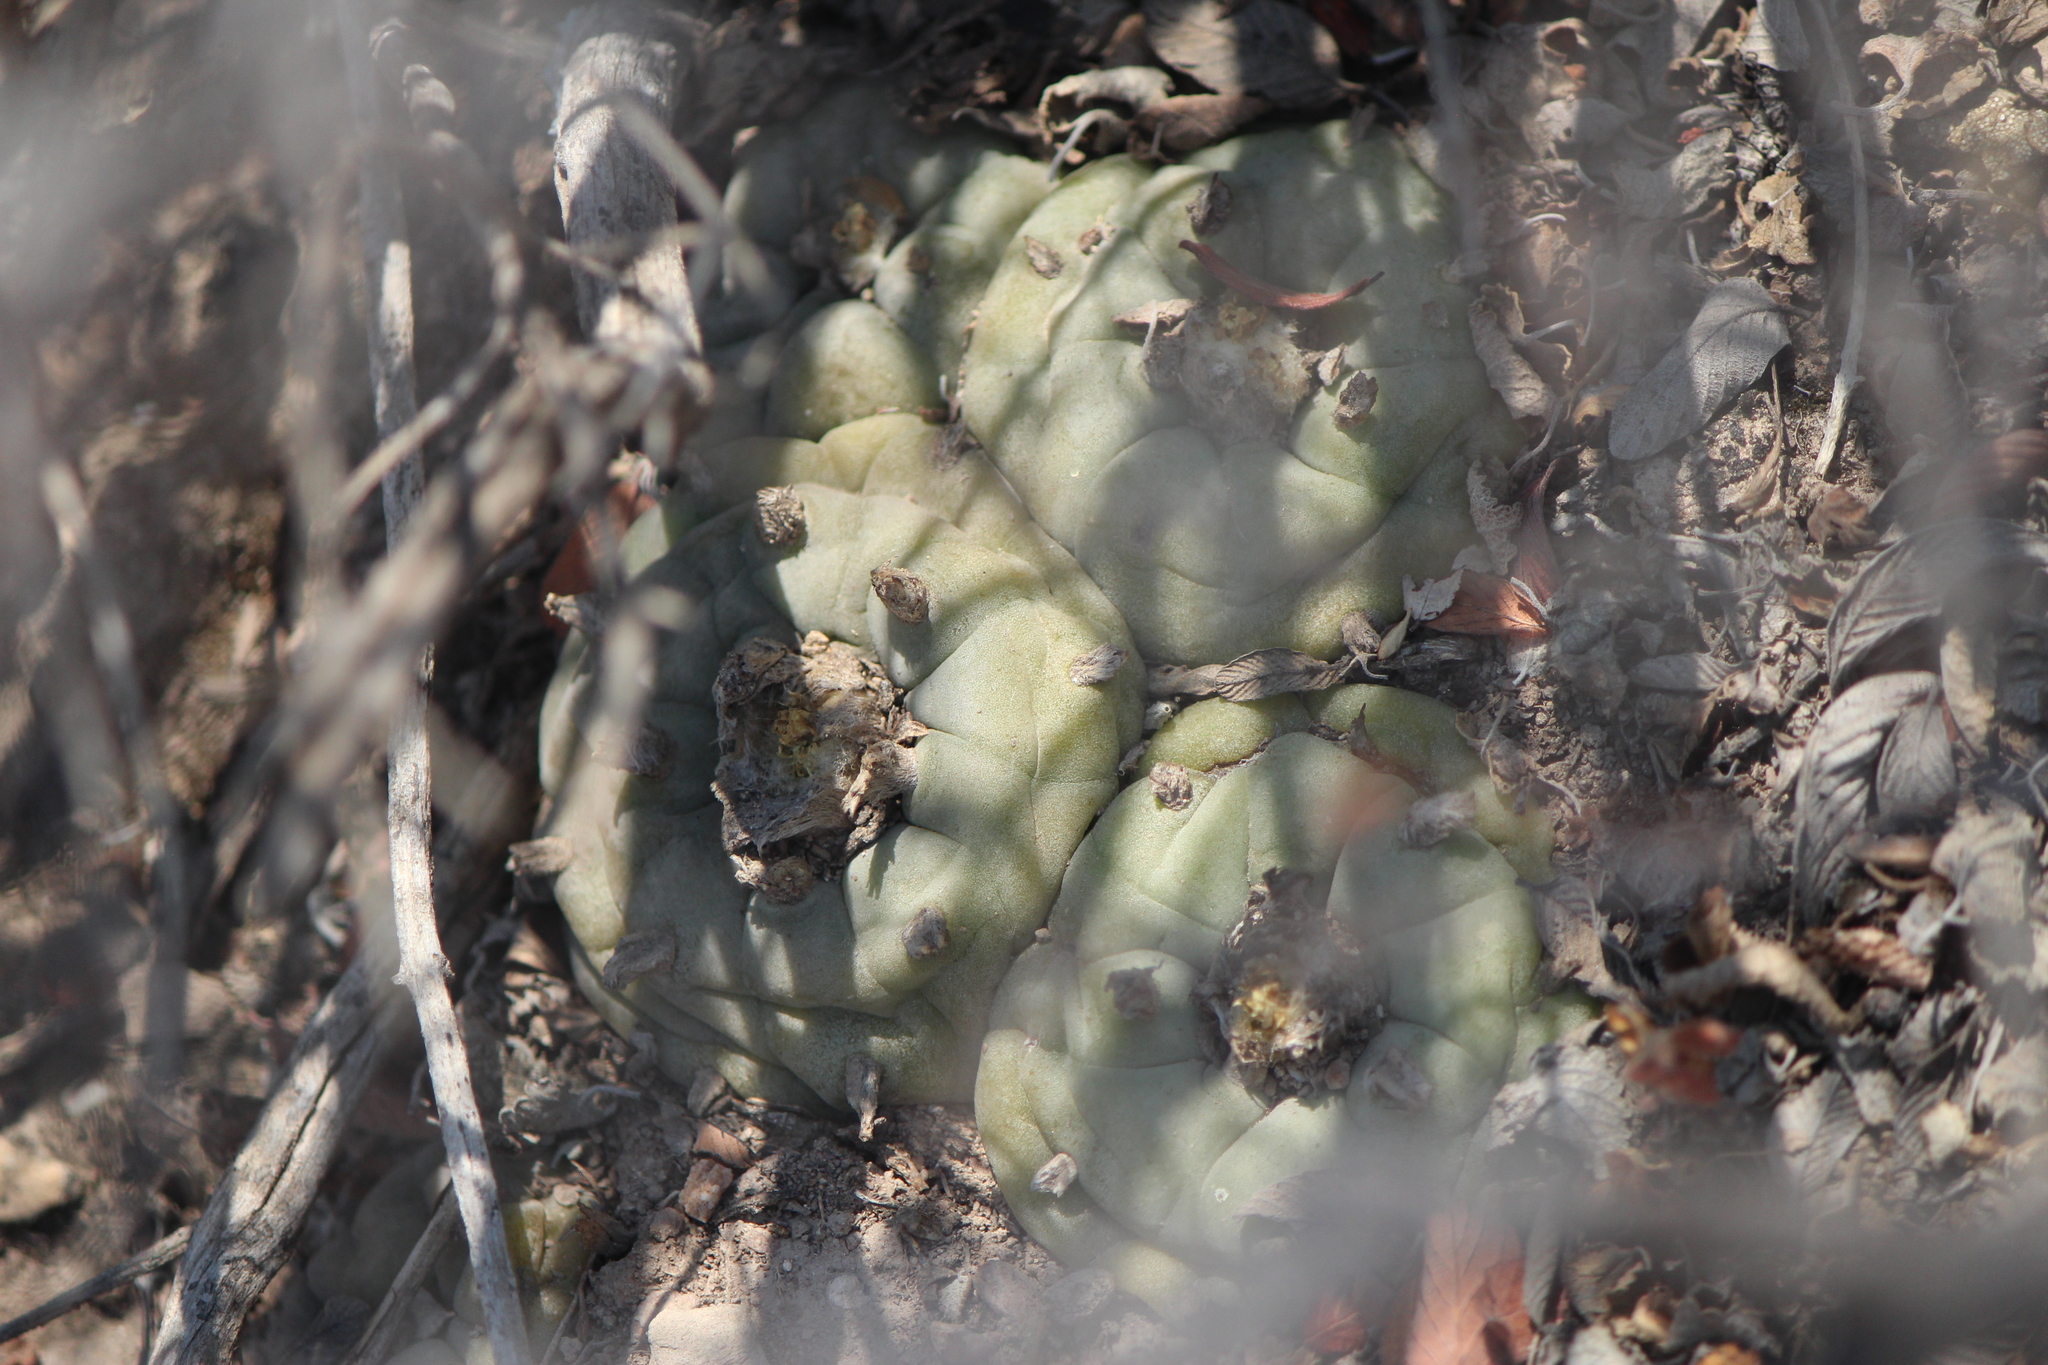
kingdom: Plantae
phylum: Tracheophyta
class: Magnoliopsida
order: Caryophyllales
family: Cactaceae
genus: Lophophora
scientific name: Lophophora diffusa
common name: Peyote
